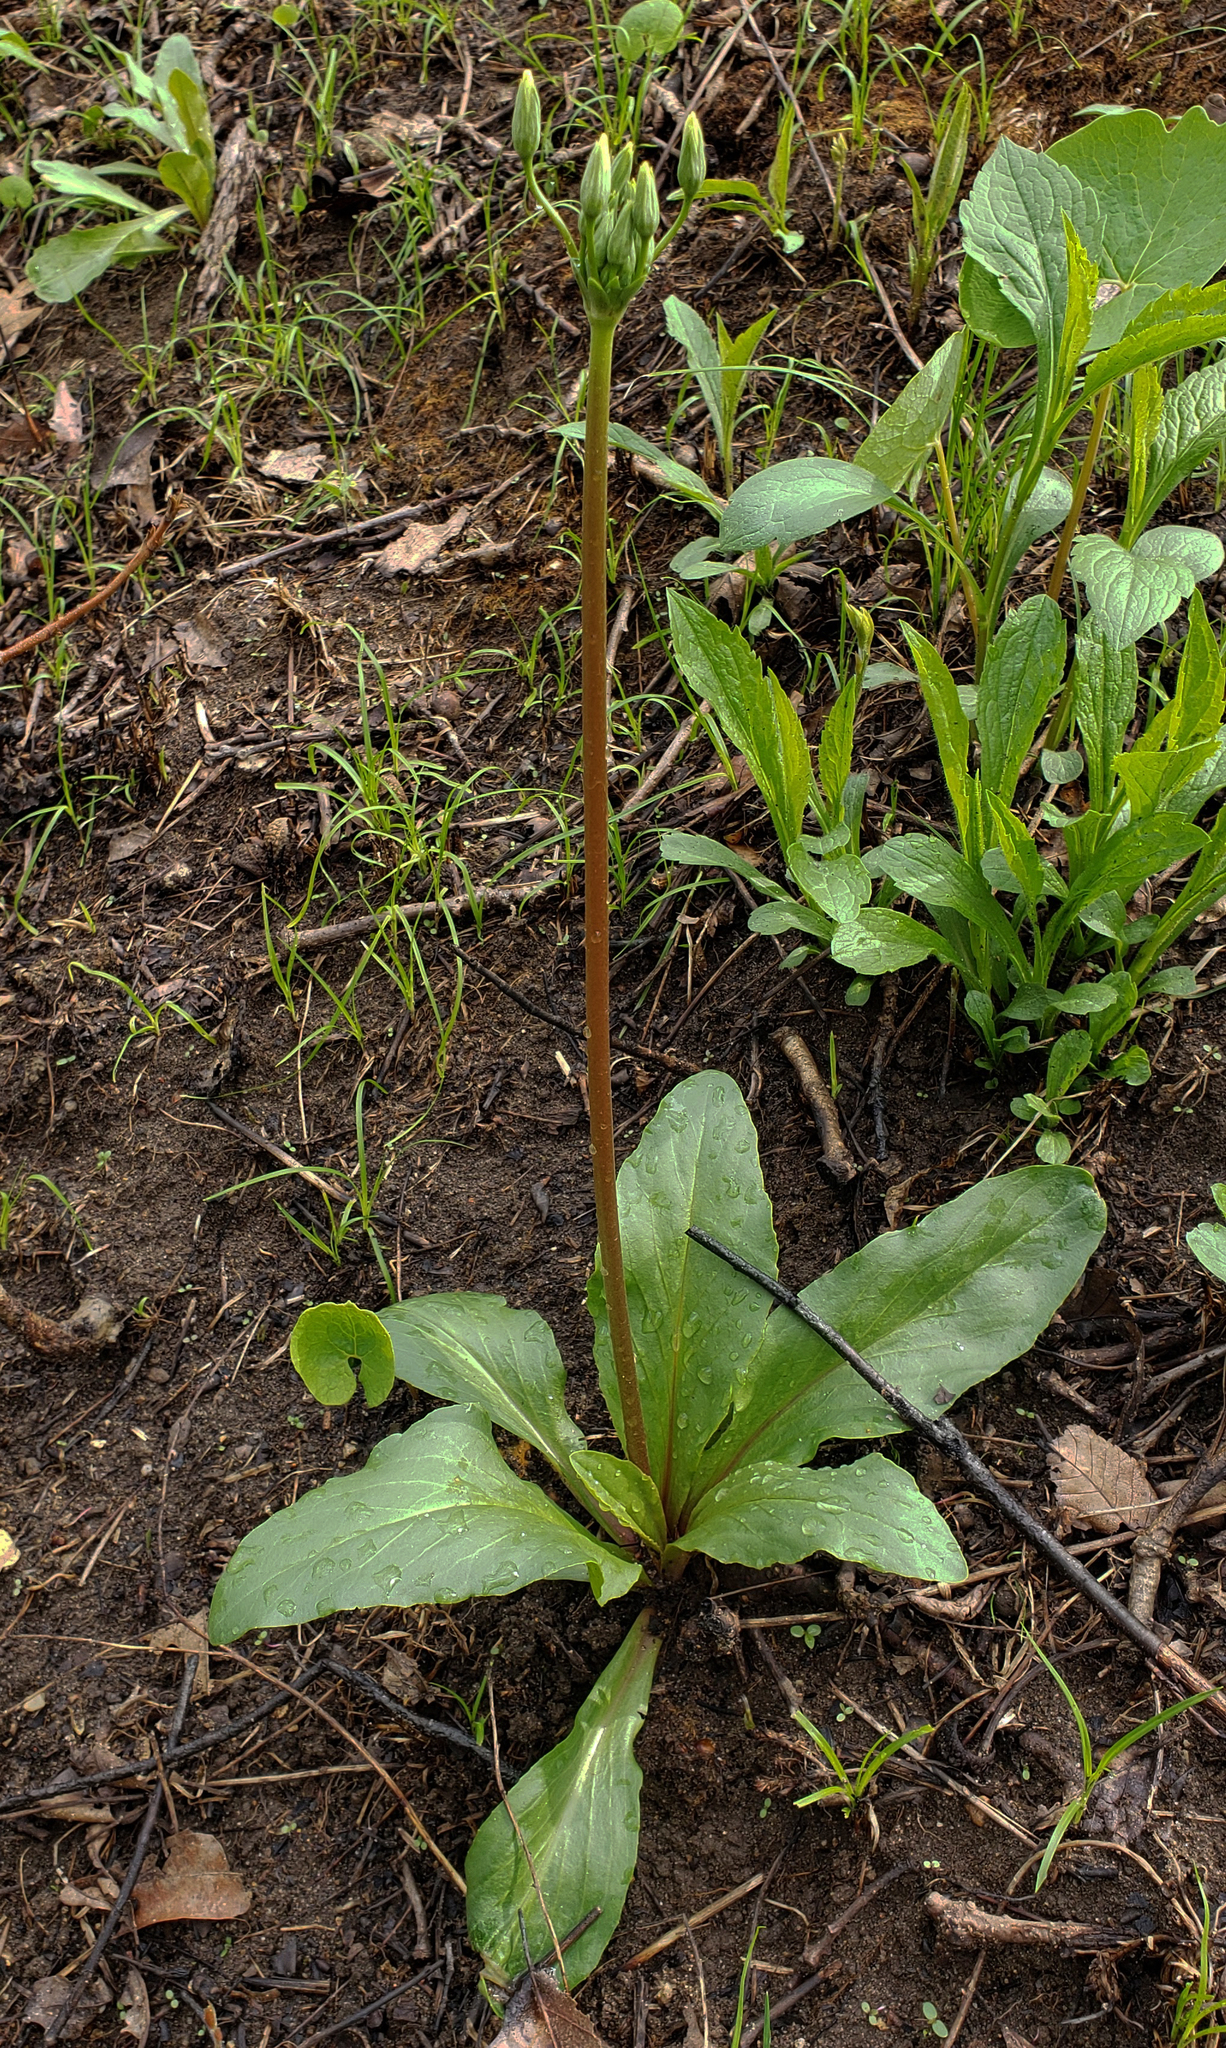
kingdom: Plantae
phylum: Tracheophyta
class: Magnoliopsida
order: Ericales
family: Primulaceae
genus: Dodecatheon
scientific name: Dodecatheon meadia
